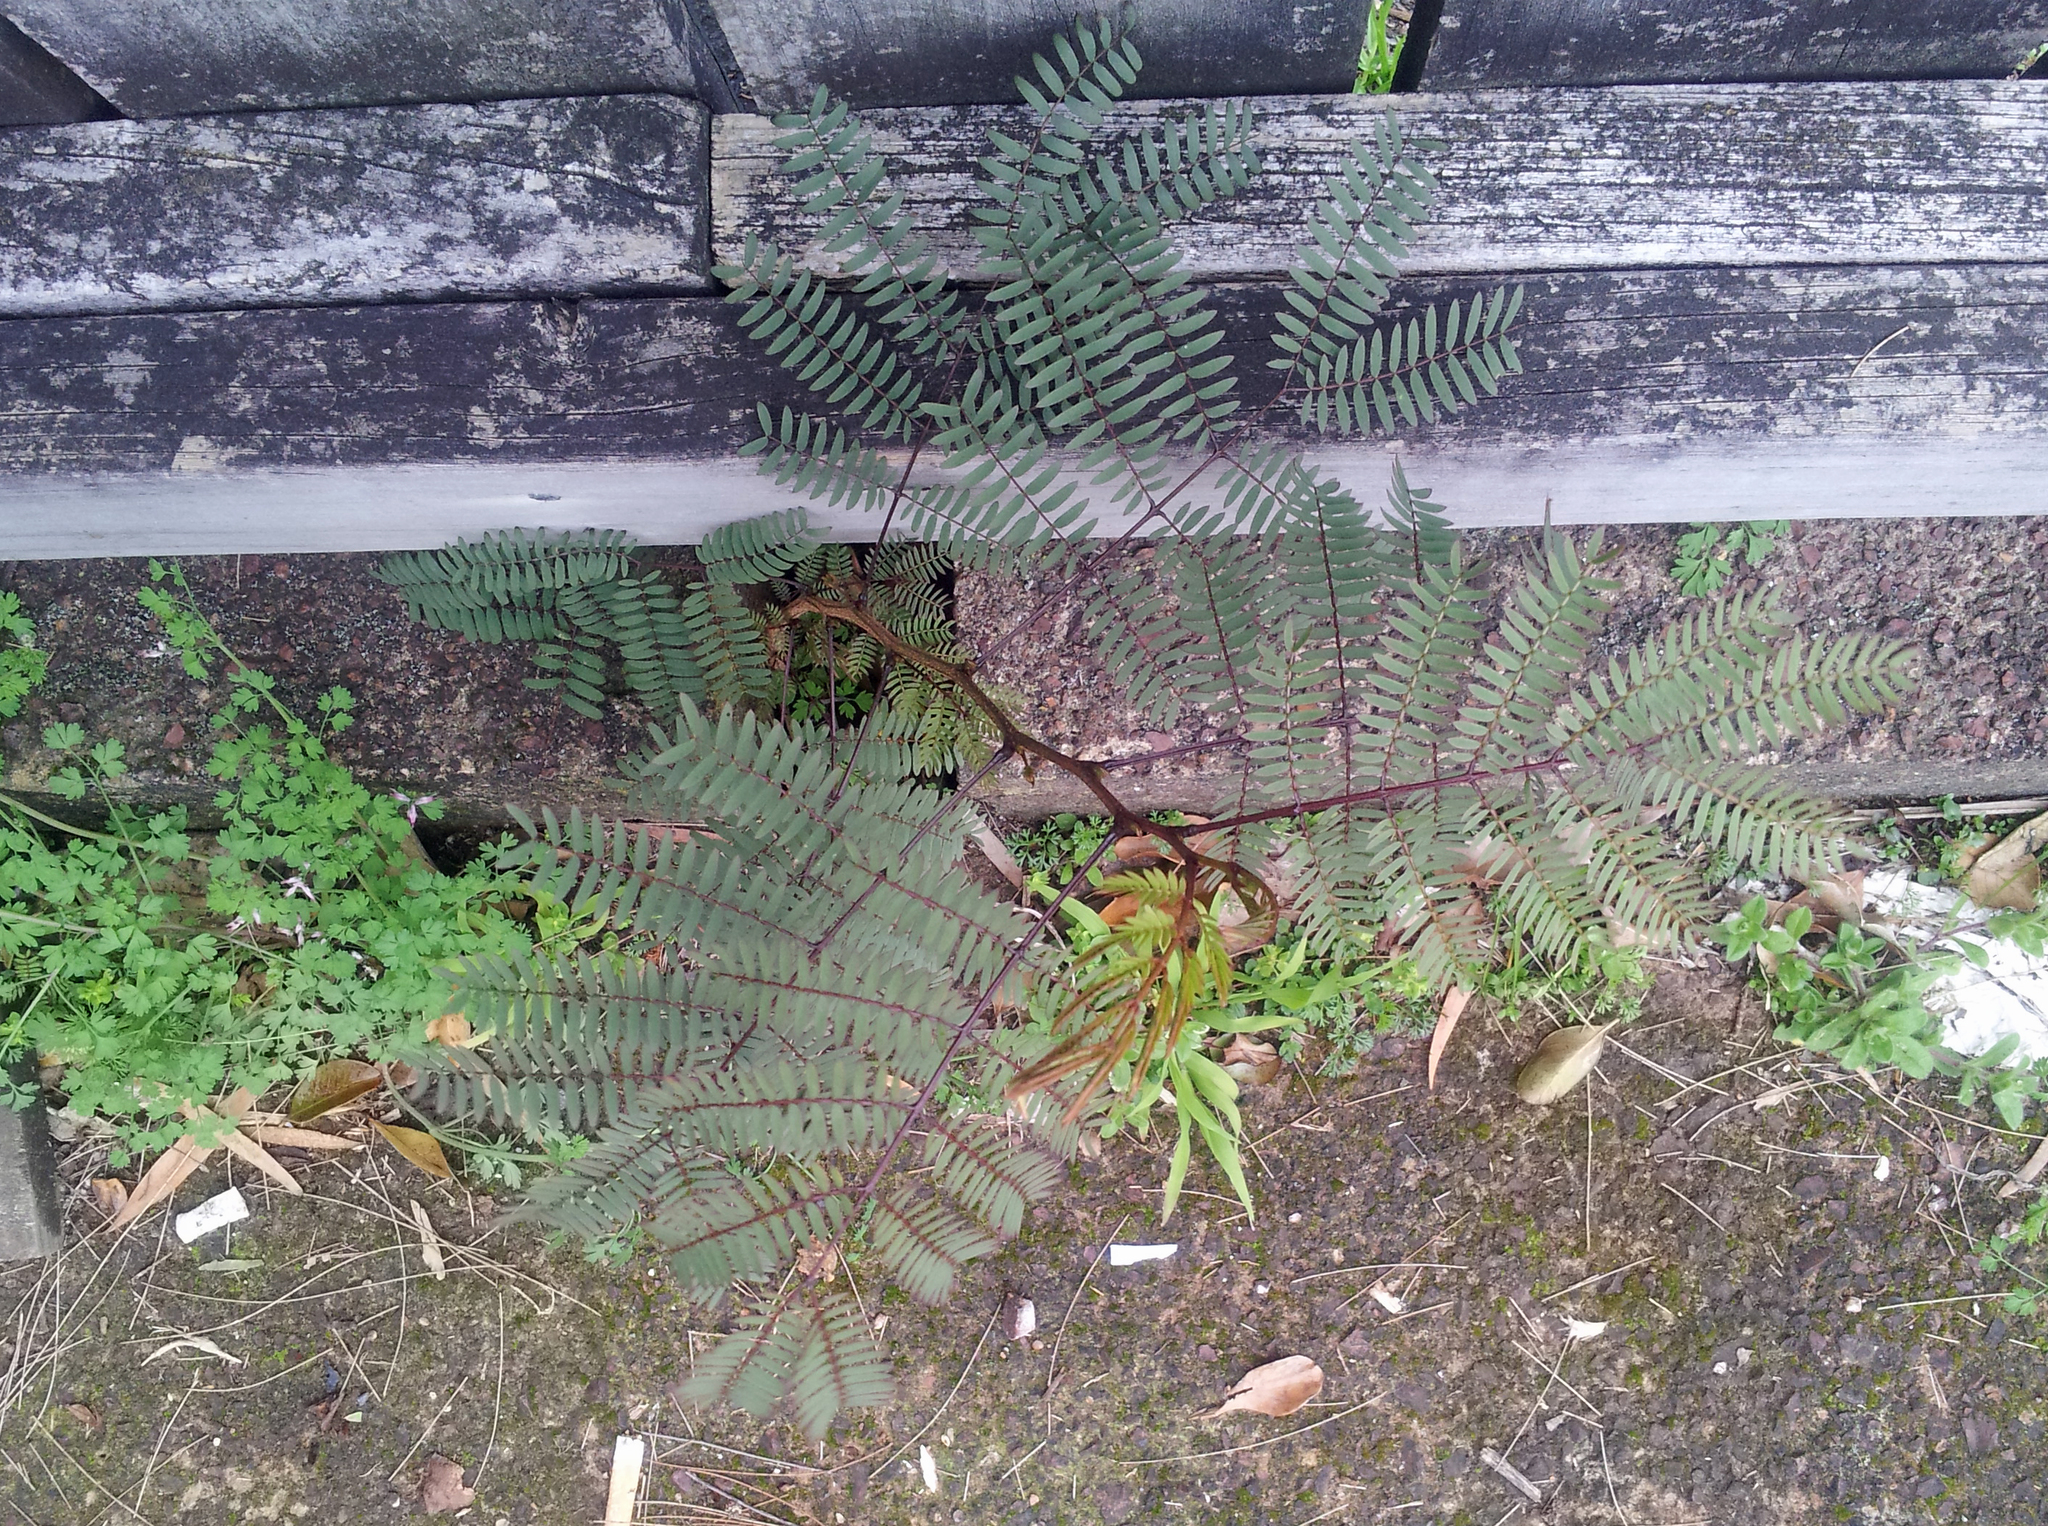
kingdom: Plantae
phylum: Tracheophyta
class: Magnoliopsida
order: Fabales
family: Fabaceae
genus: Leucaena
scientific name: Leucaena leucocephala
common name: White leadtree
